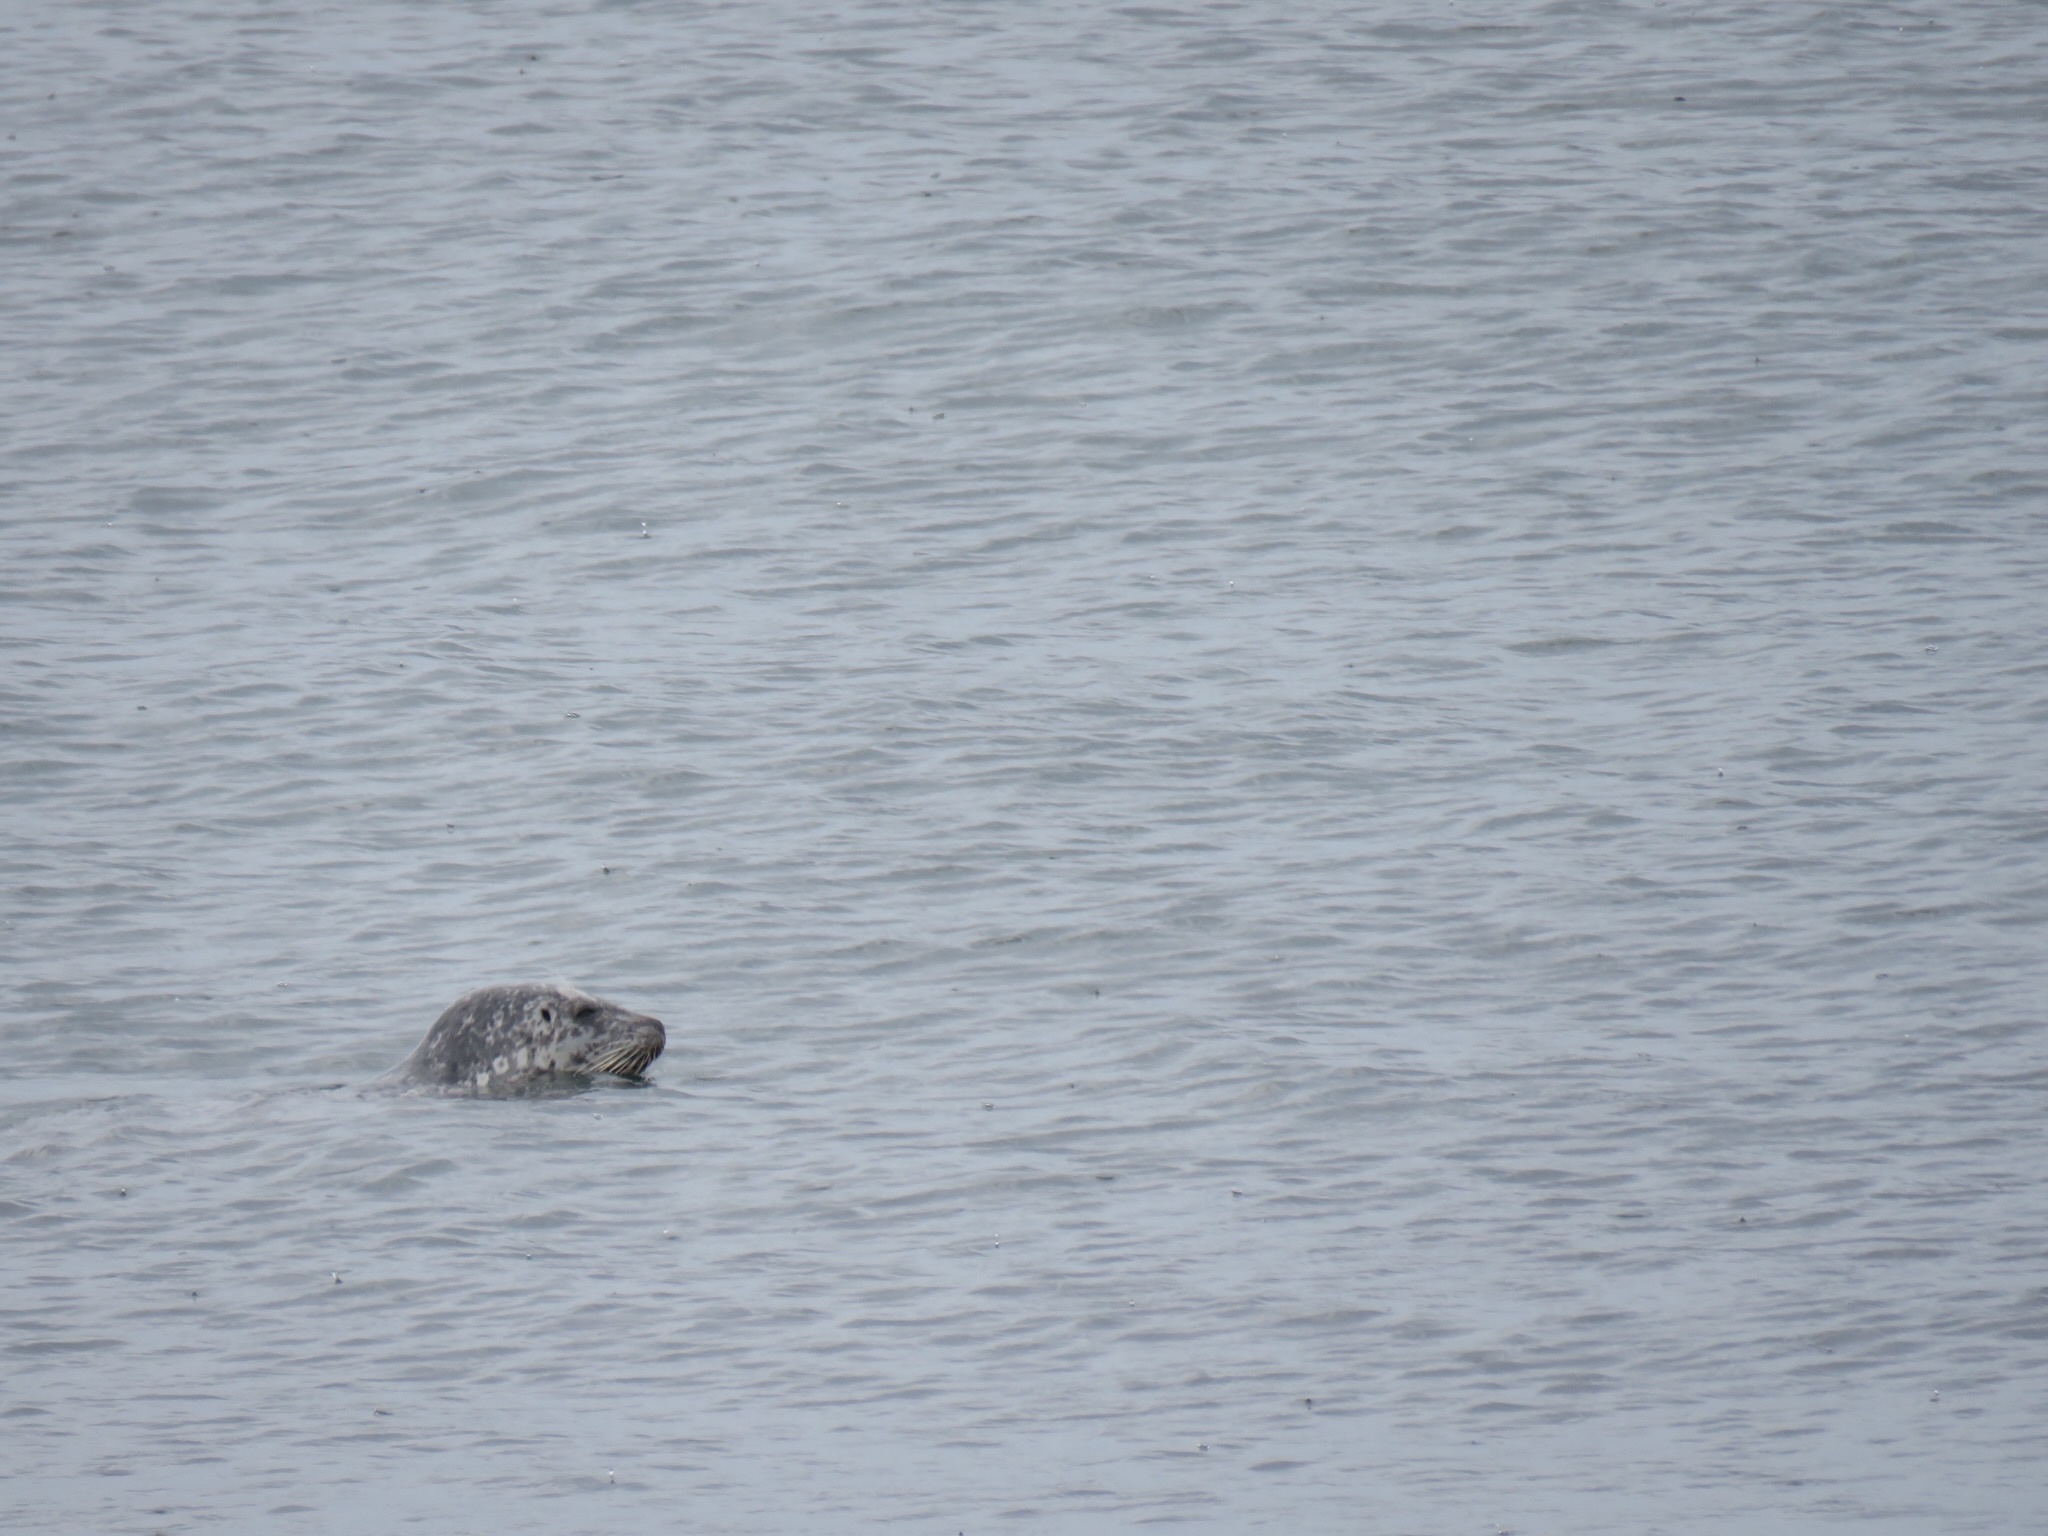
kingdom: Animalia
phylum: Chordata
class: Mammalia
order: Carnivora
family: Phocidae
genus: Phoca
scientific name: Phoca vitulina
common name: Harbor seal
